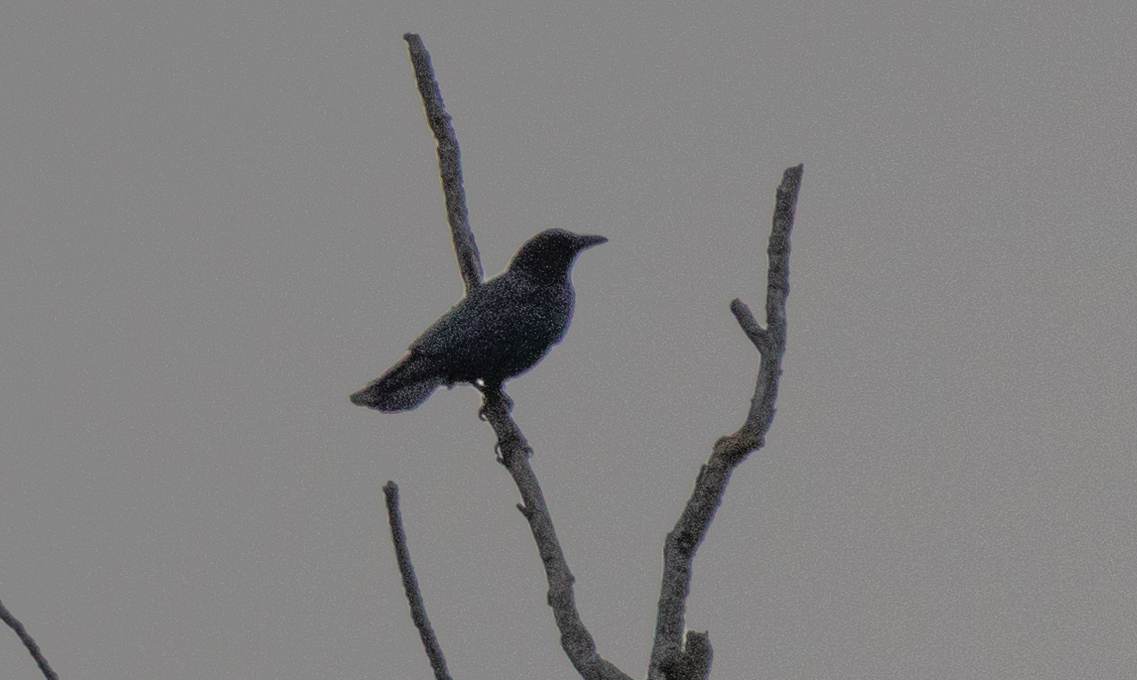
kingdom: Animalia
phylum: Chordata
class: Aves
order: Passeriformes
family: Corvidae
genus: Corvus
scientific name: Corvus brachyrhynchos
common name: American crow
